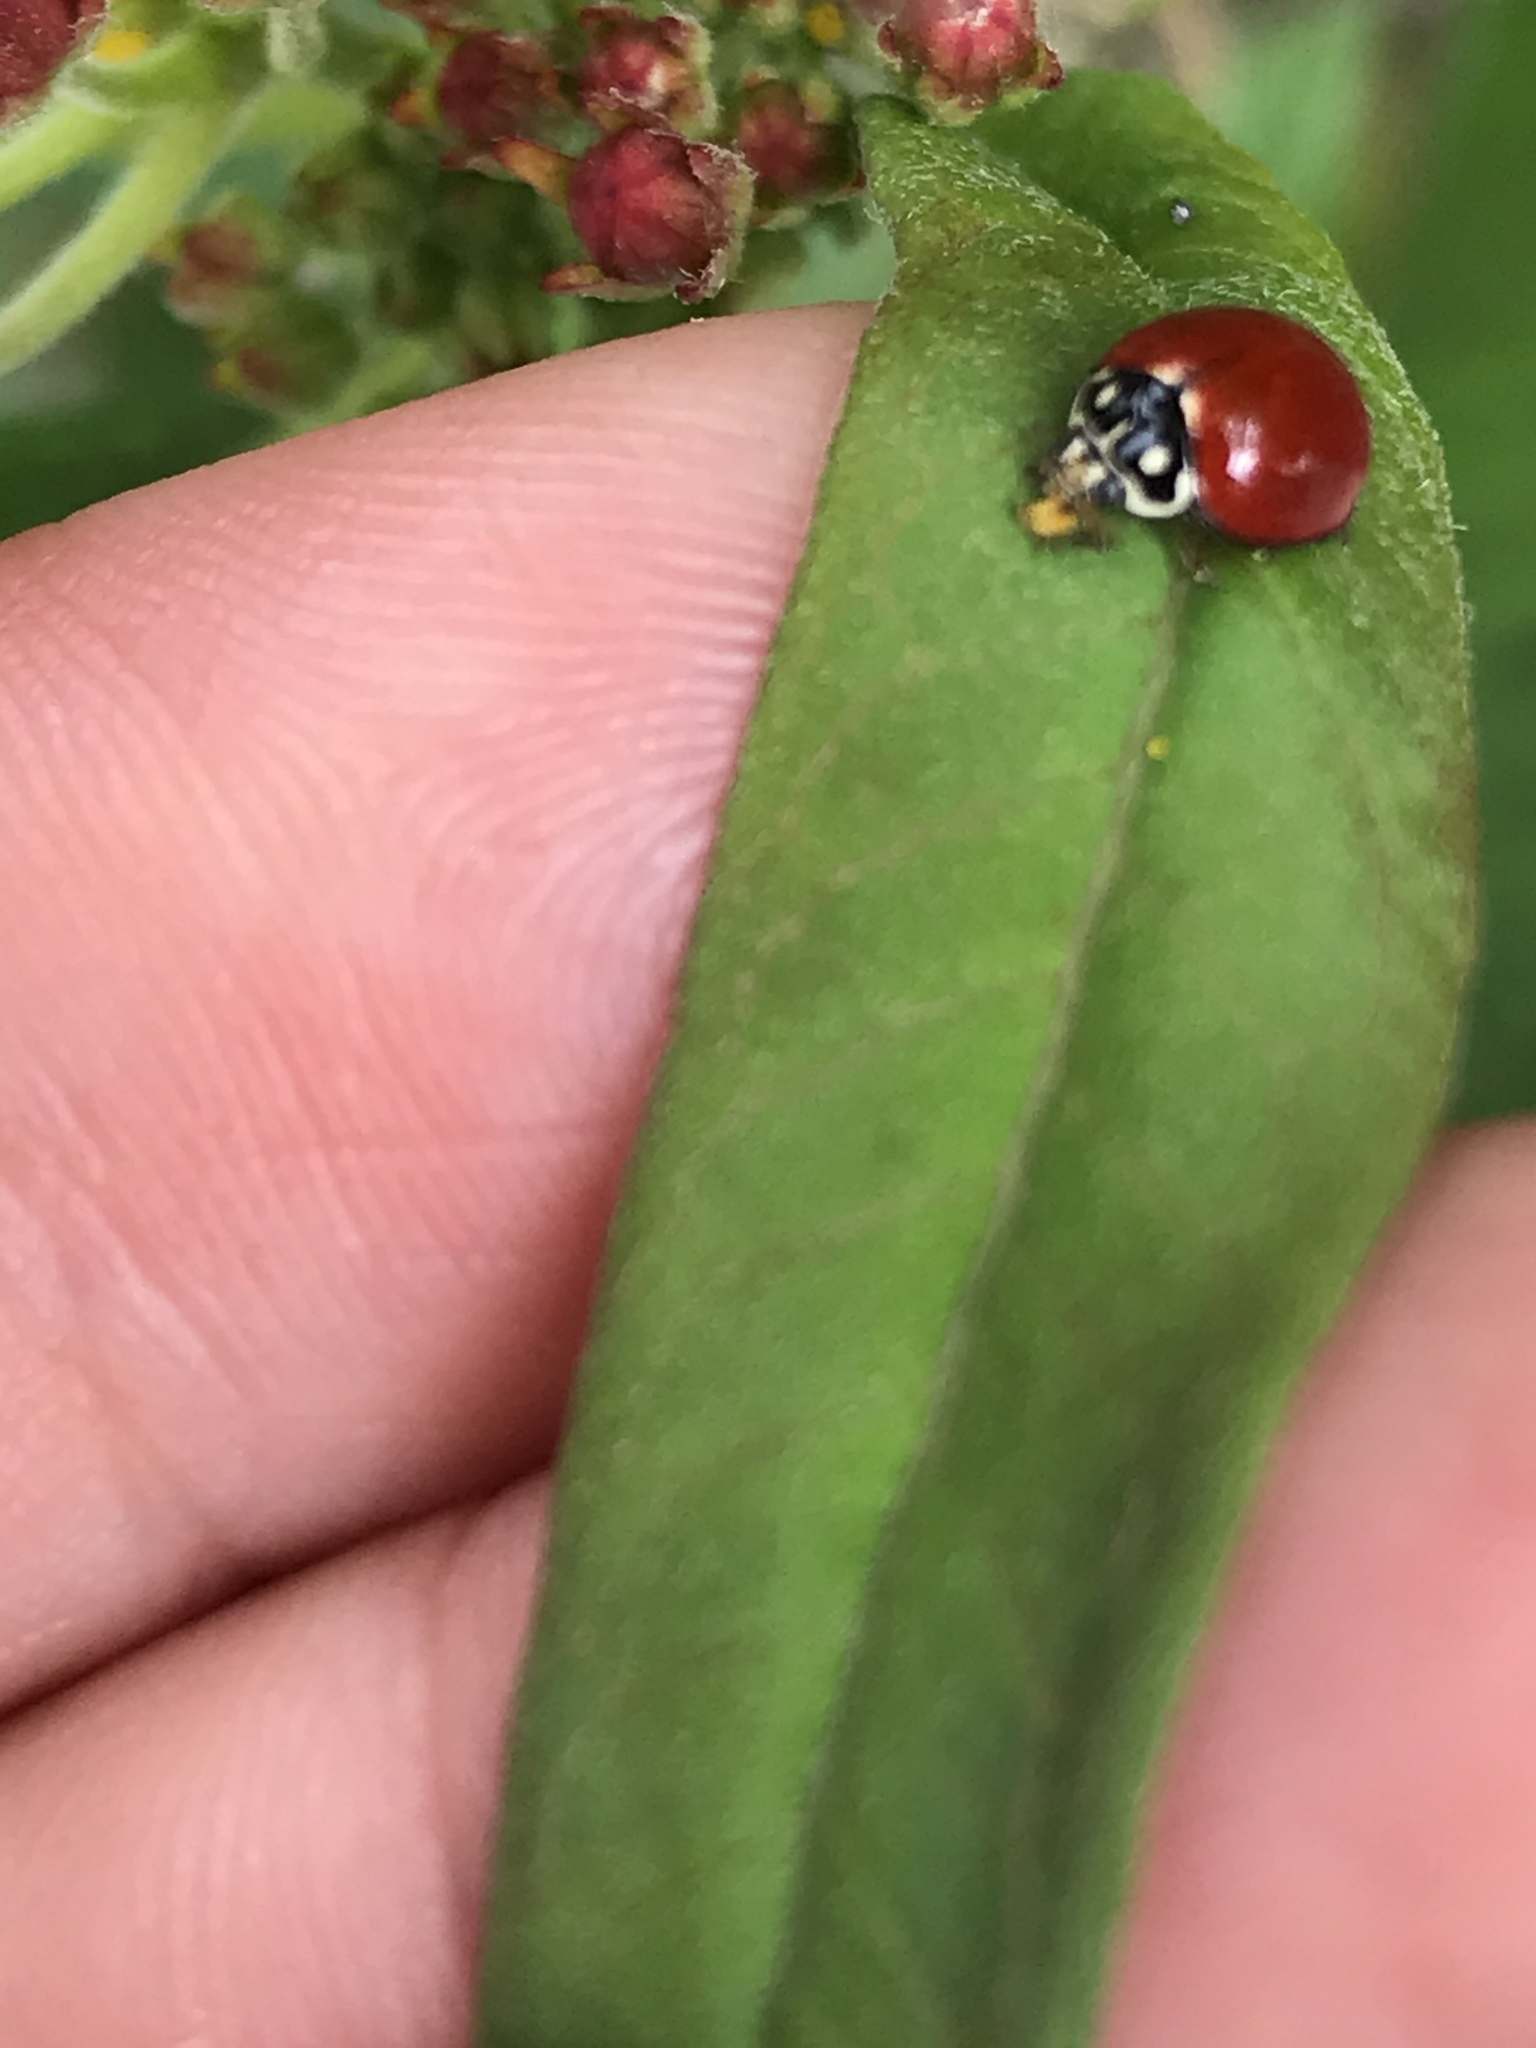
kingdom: Animalia
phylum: Arthropoda
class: Insecta
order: Coleoptera
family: Coccinellidae
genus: Cycloneda
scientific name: Cycloneda sanguinea
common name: Ladybird beetle
